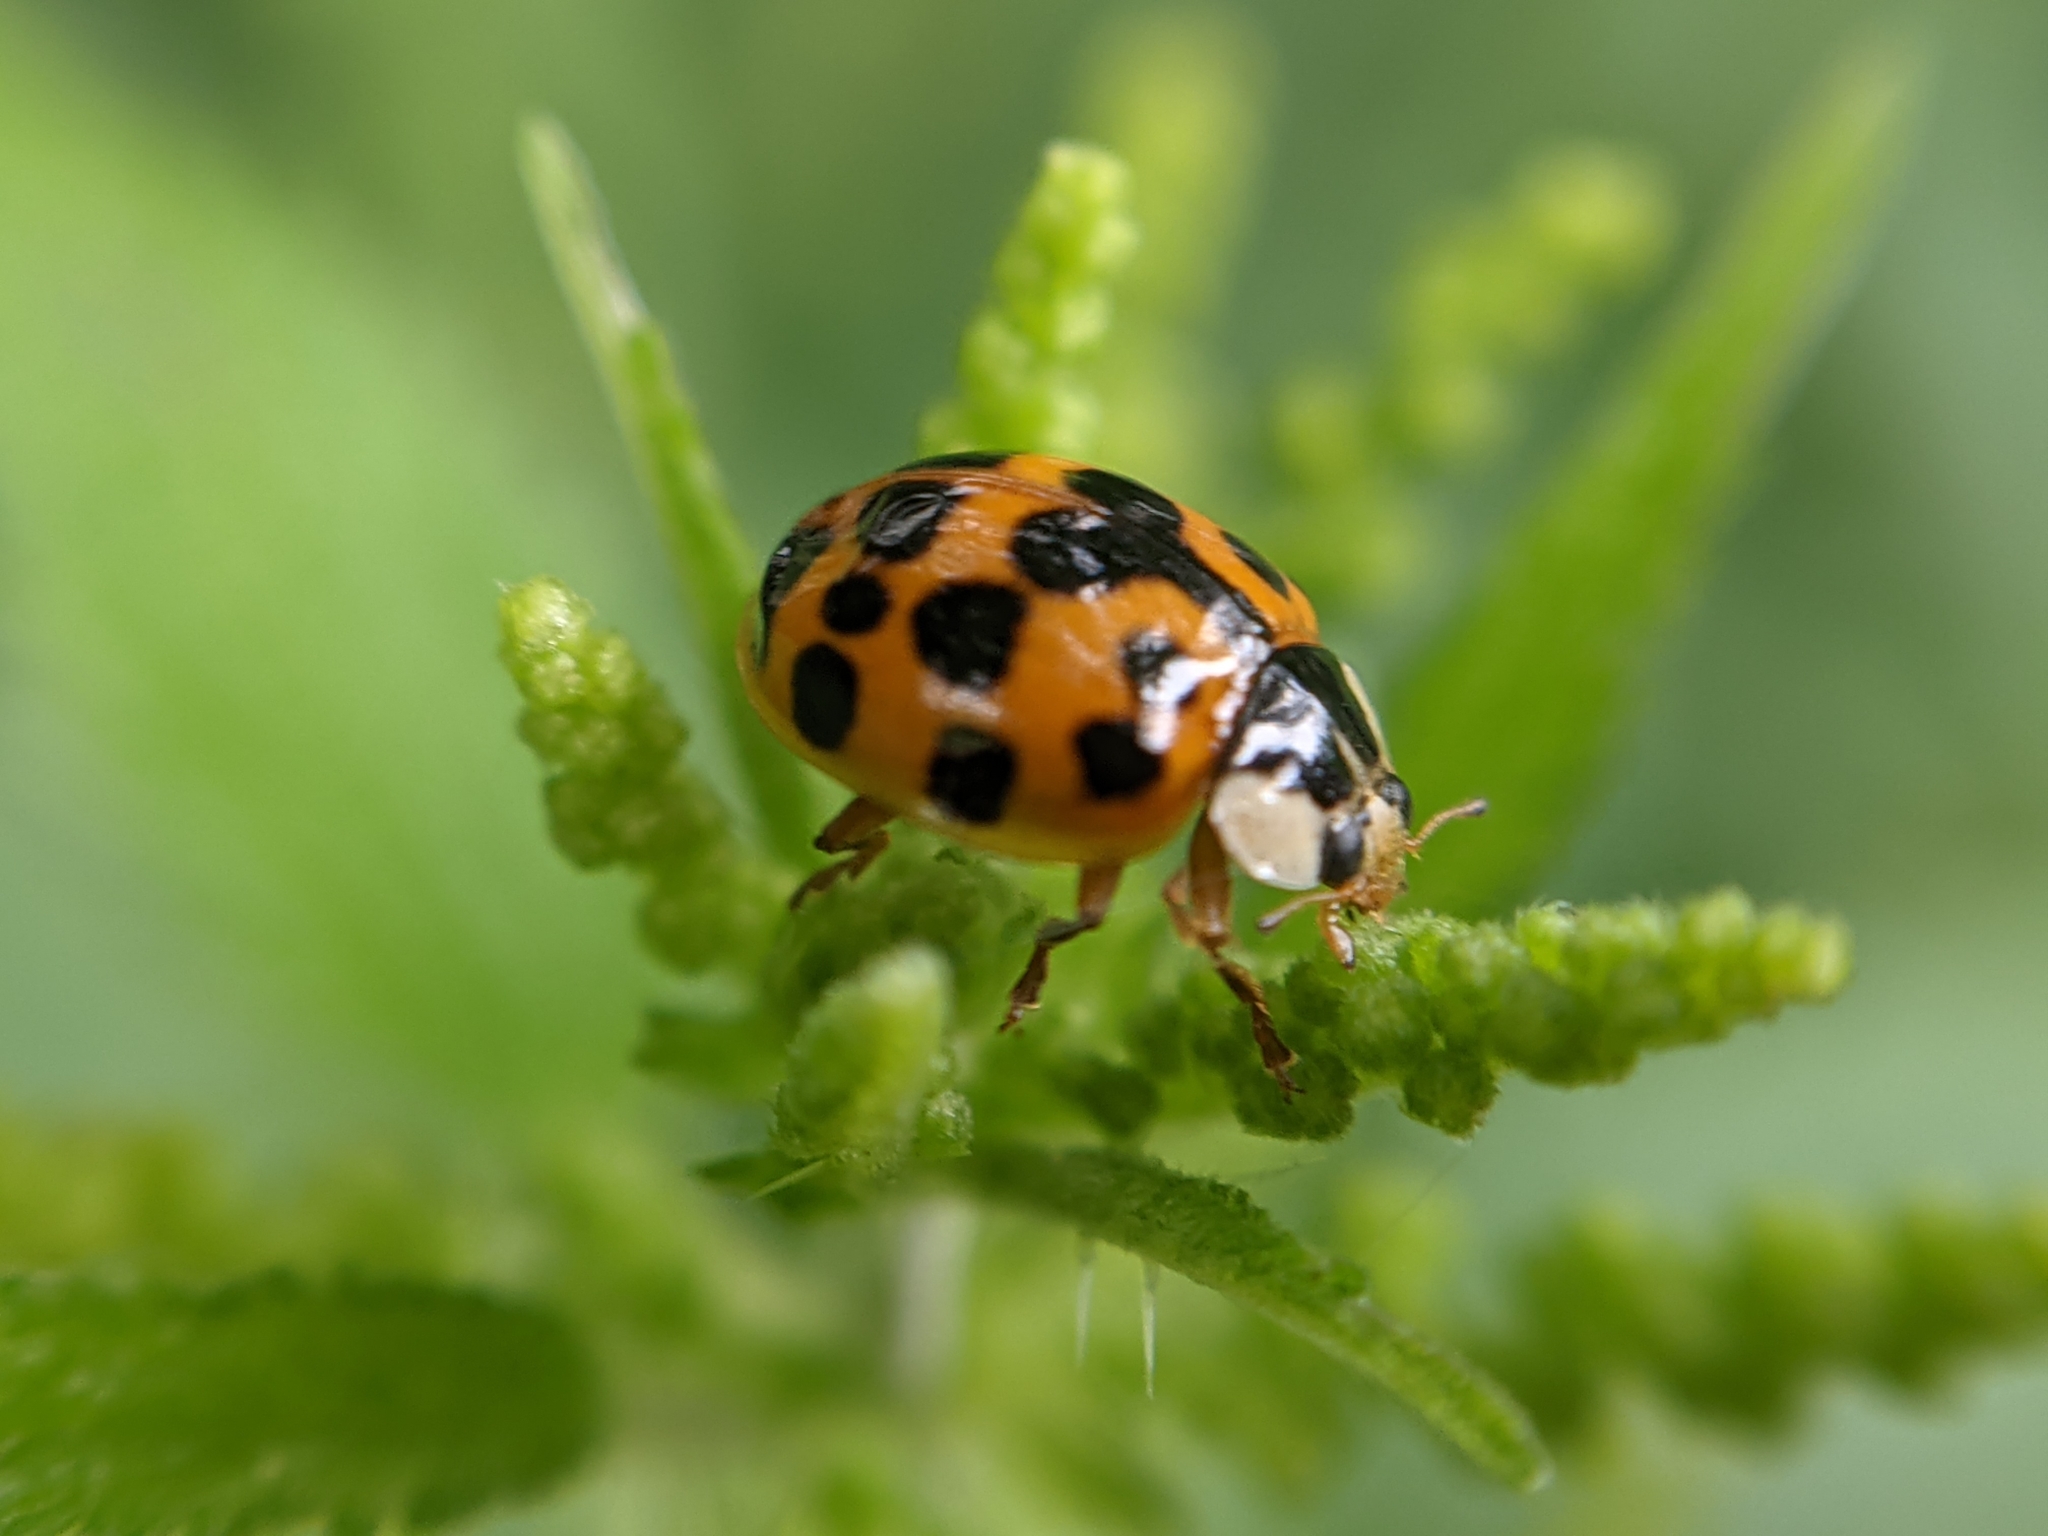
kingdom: Animalia
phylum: Arthropoda
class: Insecta
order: Coleoptera
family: Coccinellidae
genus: Harmonia
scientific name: Harmonia axyridis
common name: Harlequin ladybird
